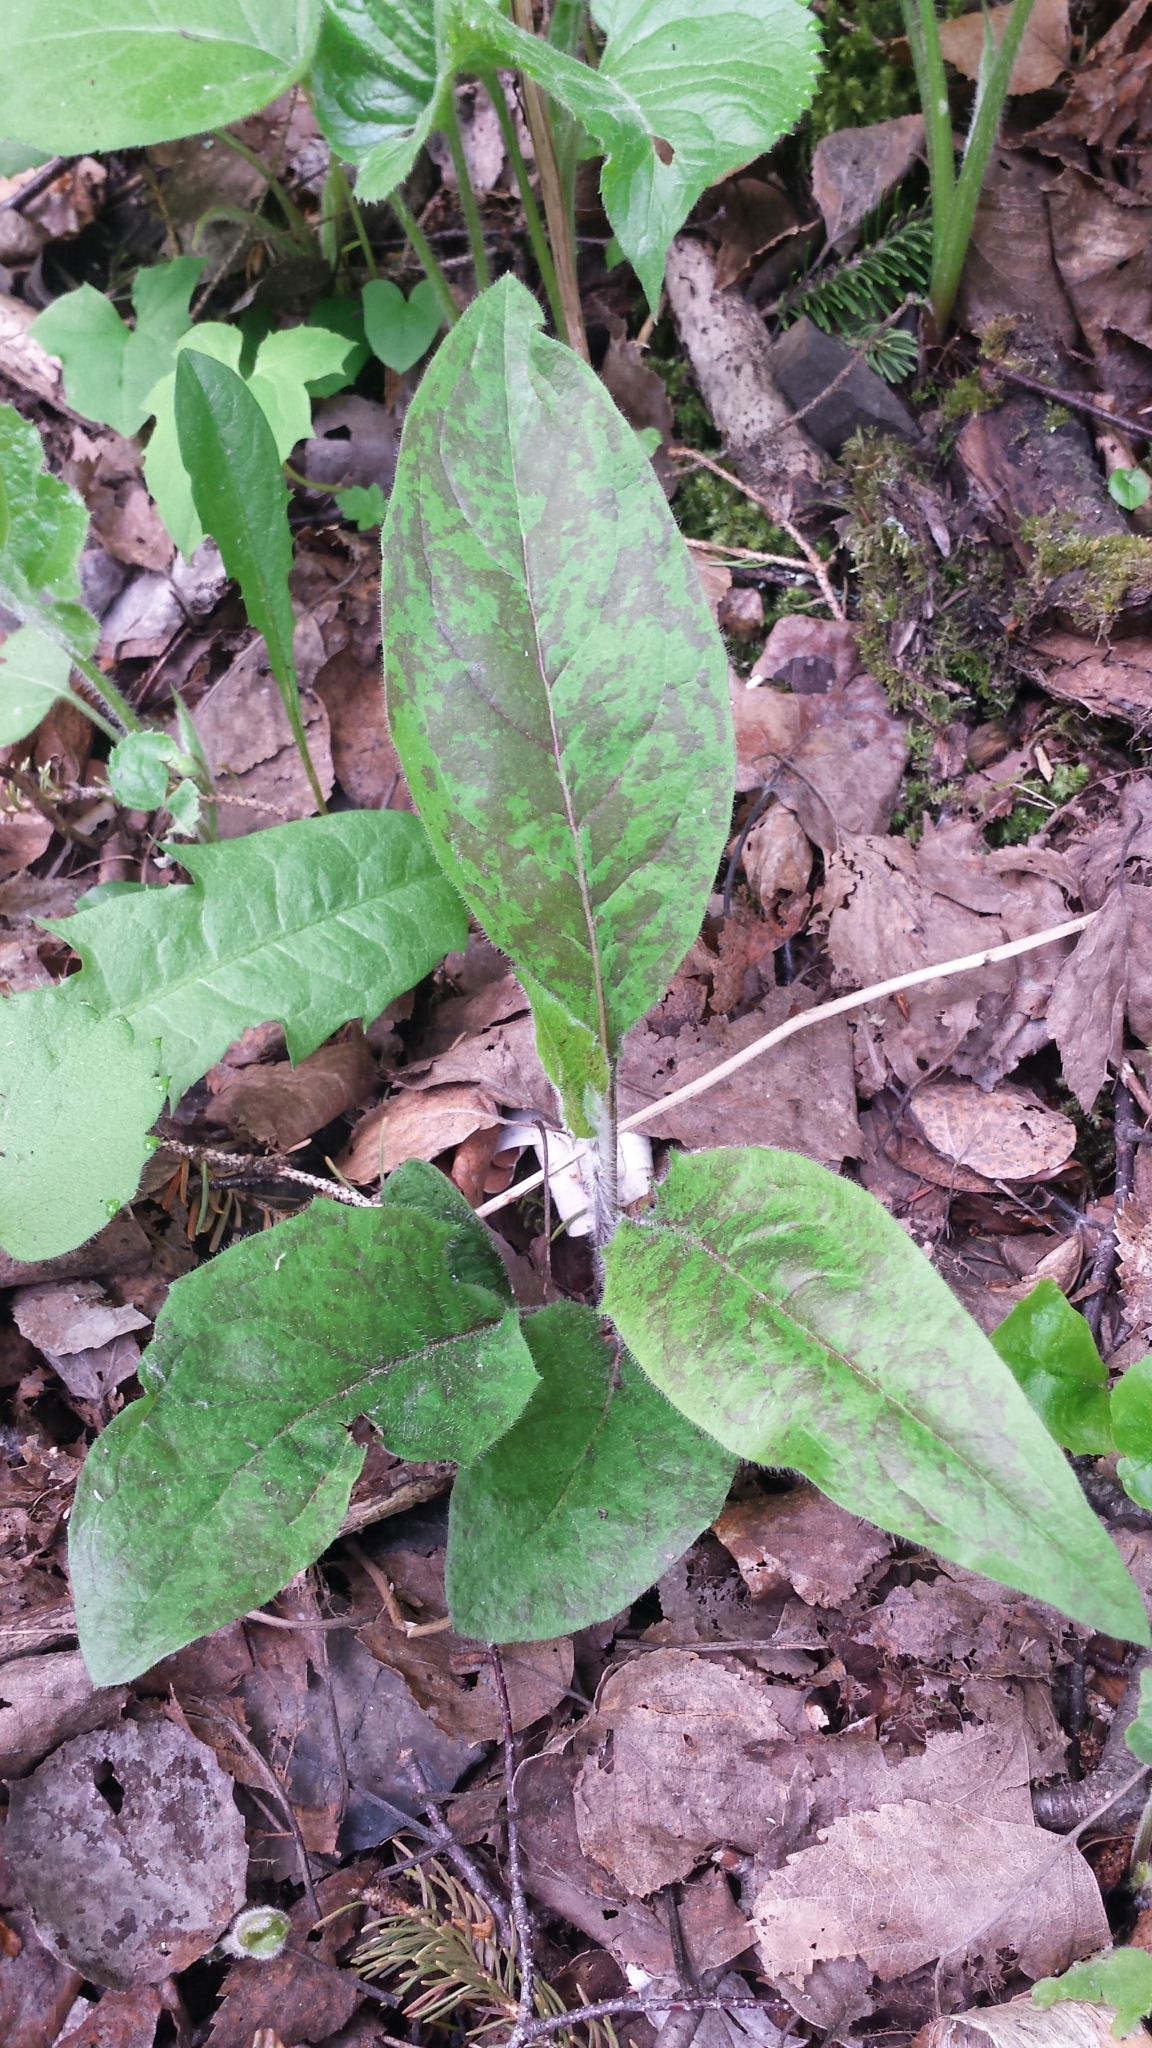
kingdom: Plantae
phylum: Tracheophyta
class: Magnoliopsida
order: Asterales
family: Asteraceae
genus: Hieracium
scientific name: Hieracium maculatum
